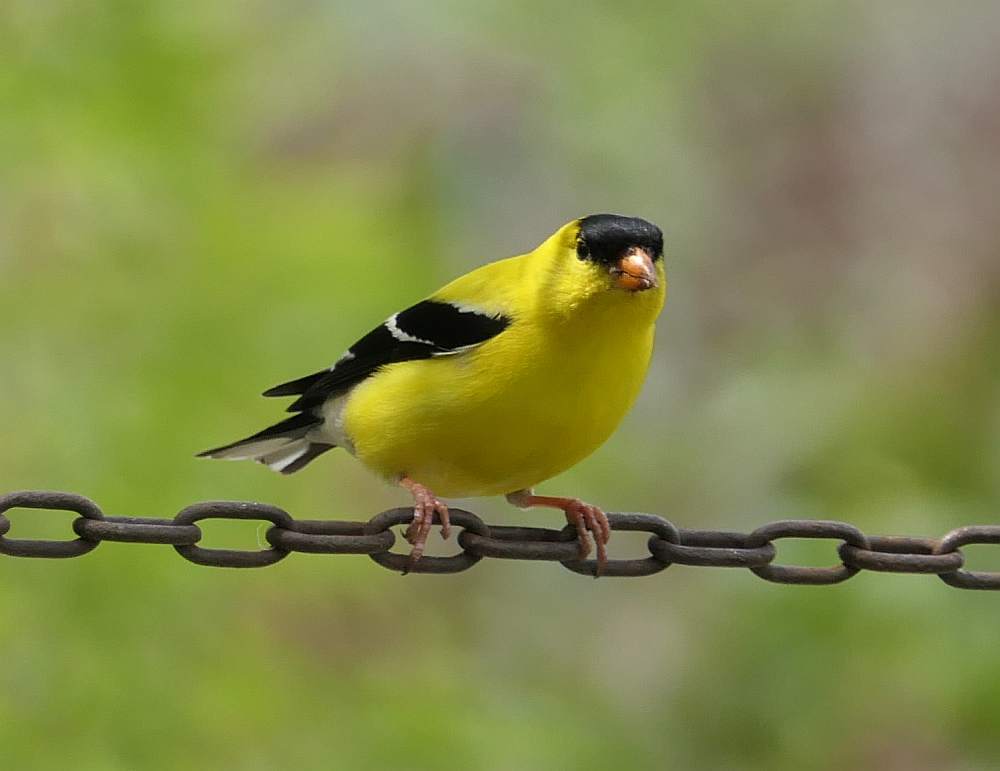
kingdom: Animalia
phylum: Chordata
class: Aves
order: Passeriformes
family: Fringillidae
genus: Spinus
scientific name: Spinus tristis
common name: American goldfinch
